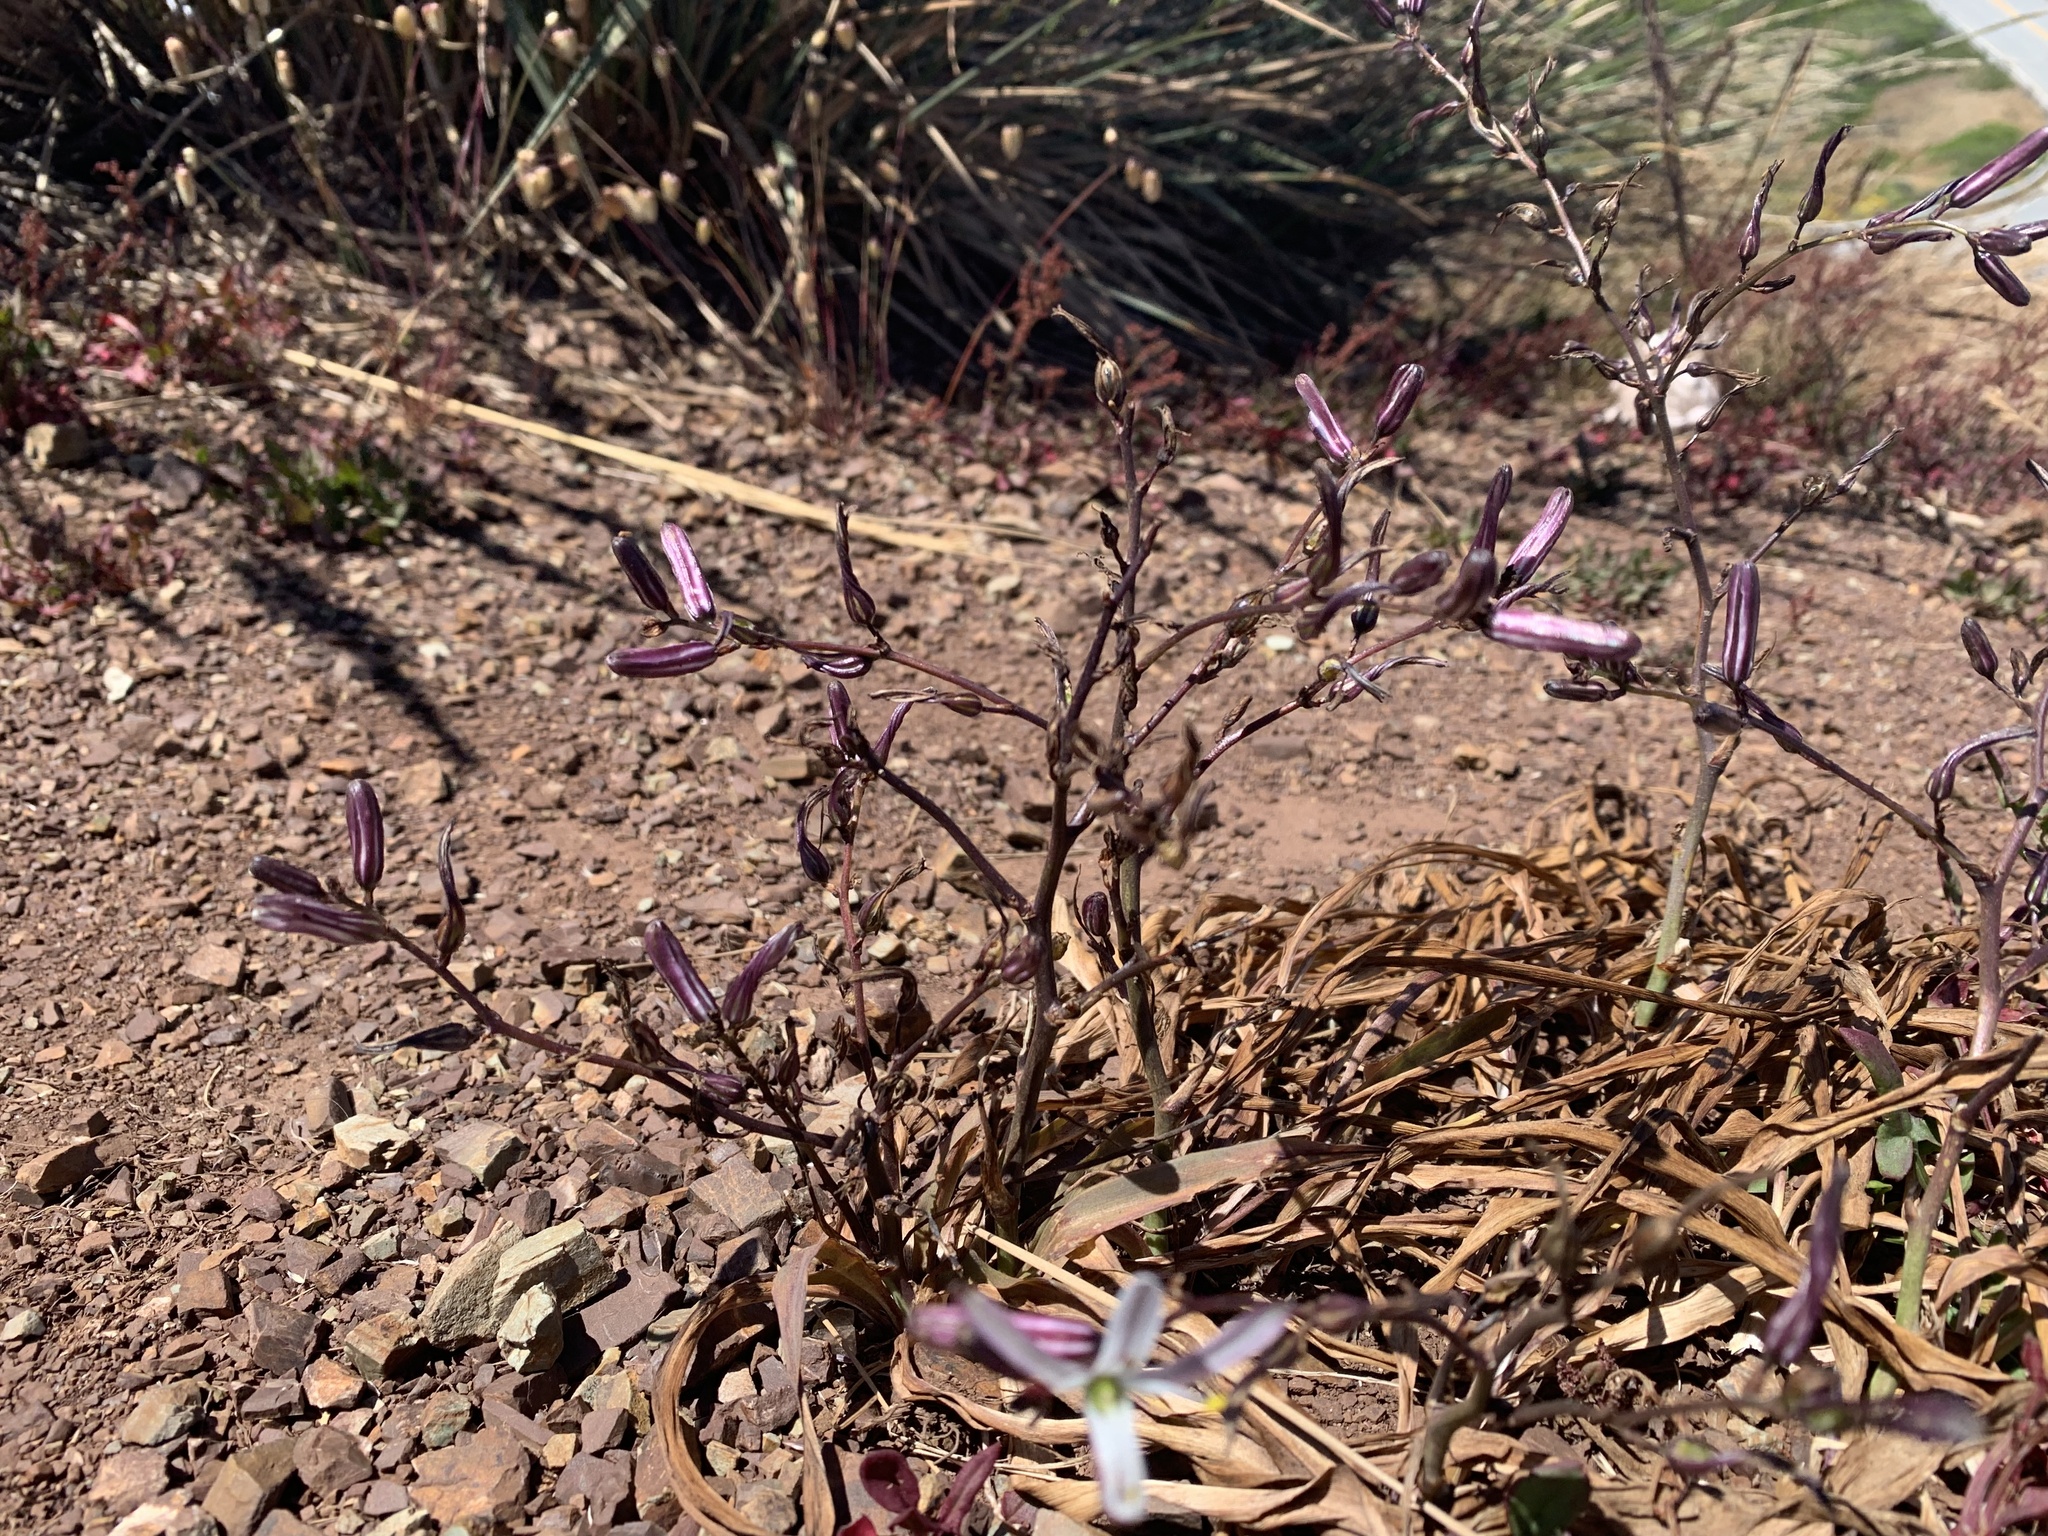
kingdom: Plantae
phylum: Tracheophyta
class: Liliopsida
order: Asparagales
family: Asparagaceae
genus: Chlorogalum
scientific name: Chlorogalum pomeridianum
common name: Amole
